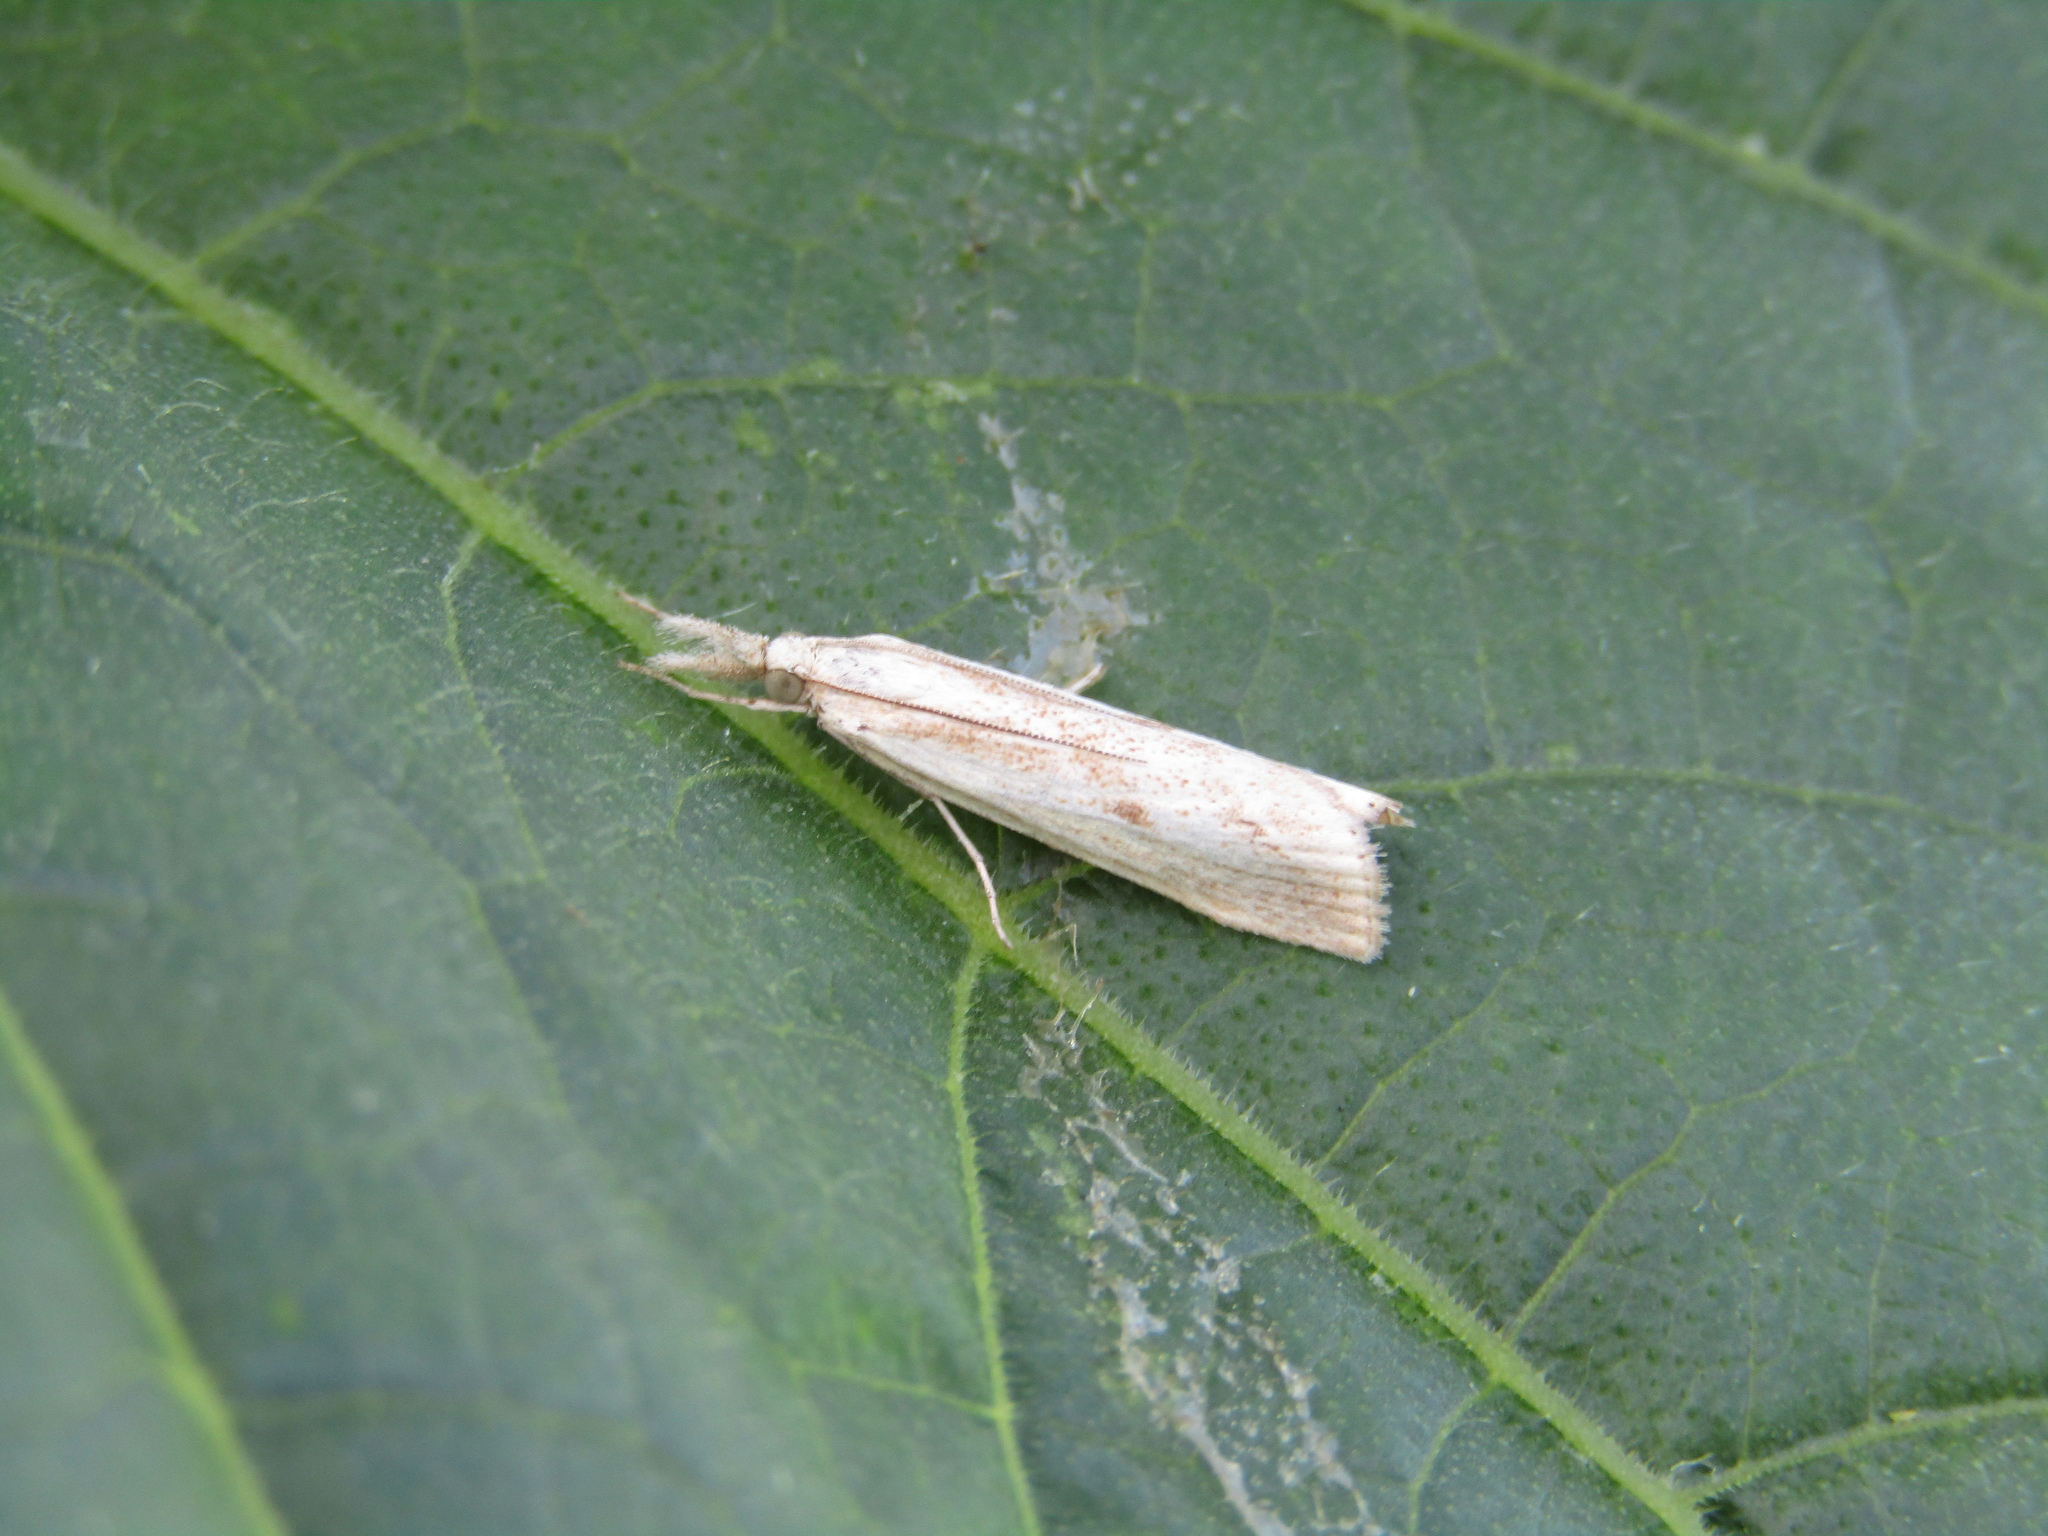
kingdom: Animalia
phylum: Arthropoda
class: Insecta
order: Lepidoptera
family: Crambidae
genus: Agriphila
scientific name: Agriphila inquinatella
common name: Barred grass-veneer
